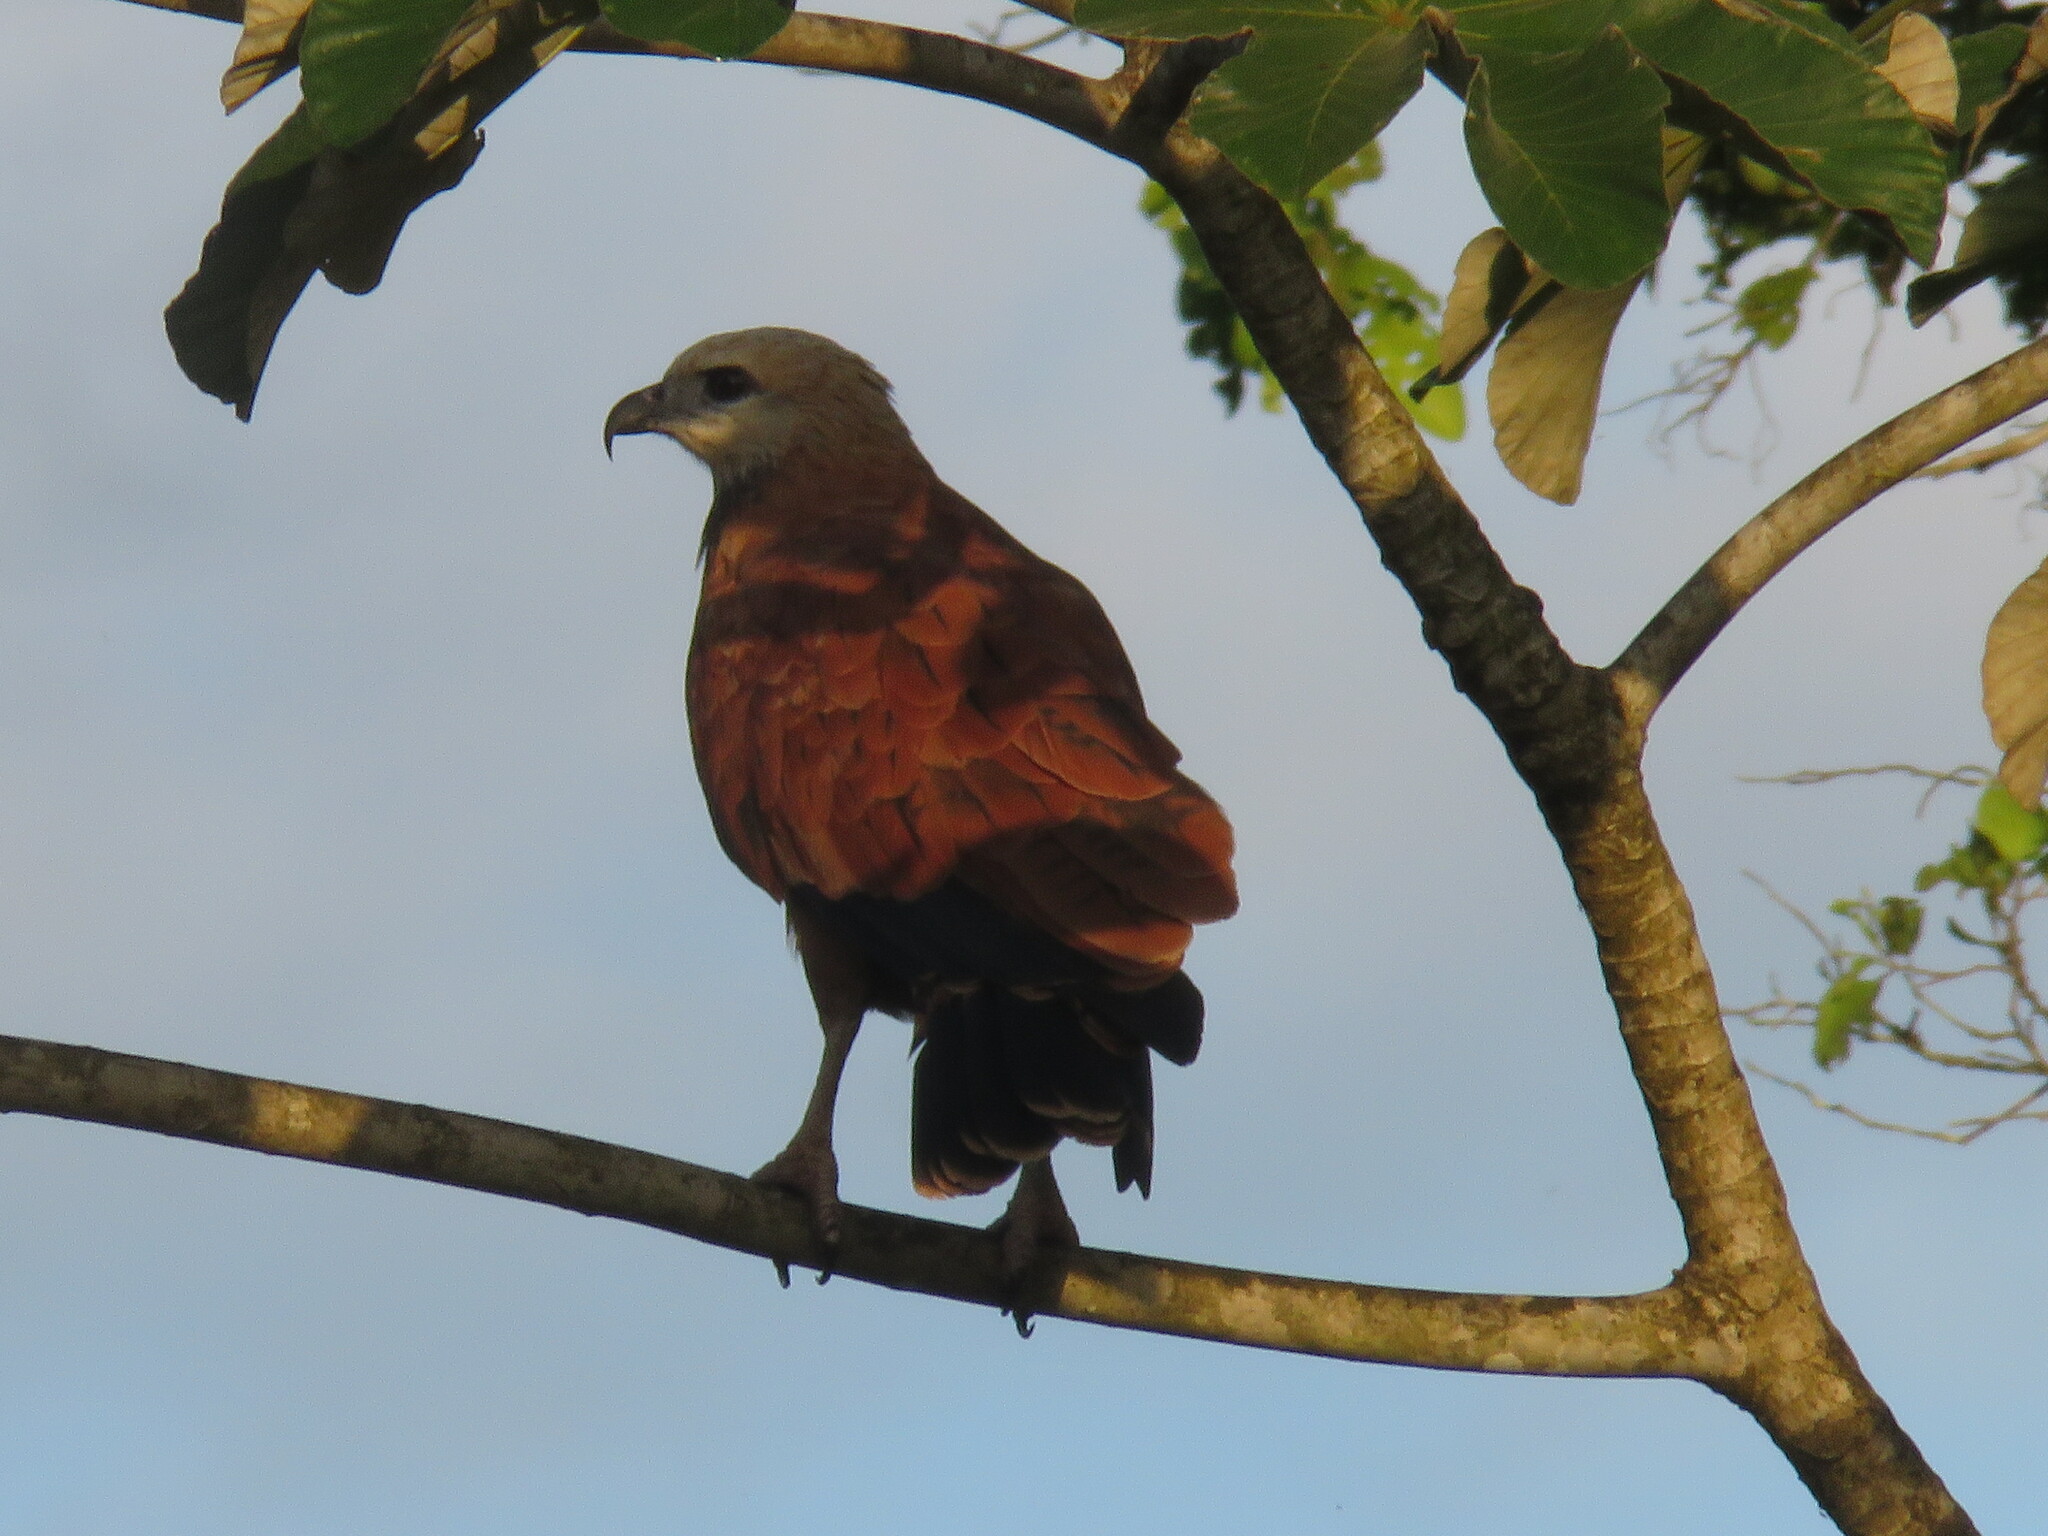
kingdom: Animalia
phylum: Chordata
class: Aves
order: Accipitriformes
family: Accipitridae
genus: Busarellus
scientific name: Busarellus nigricollis
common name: Black-collared hawk
